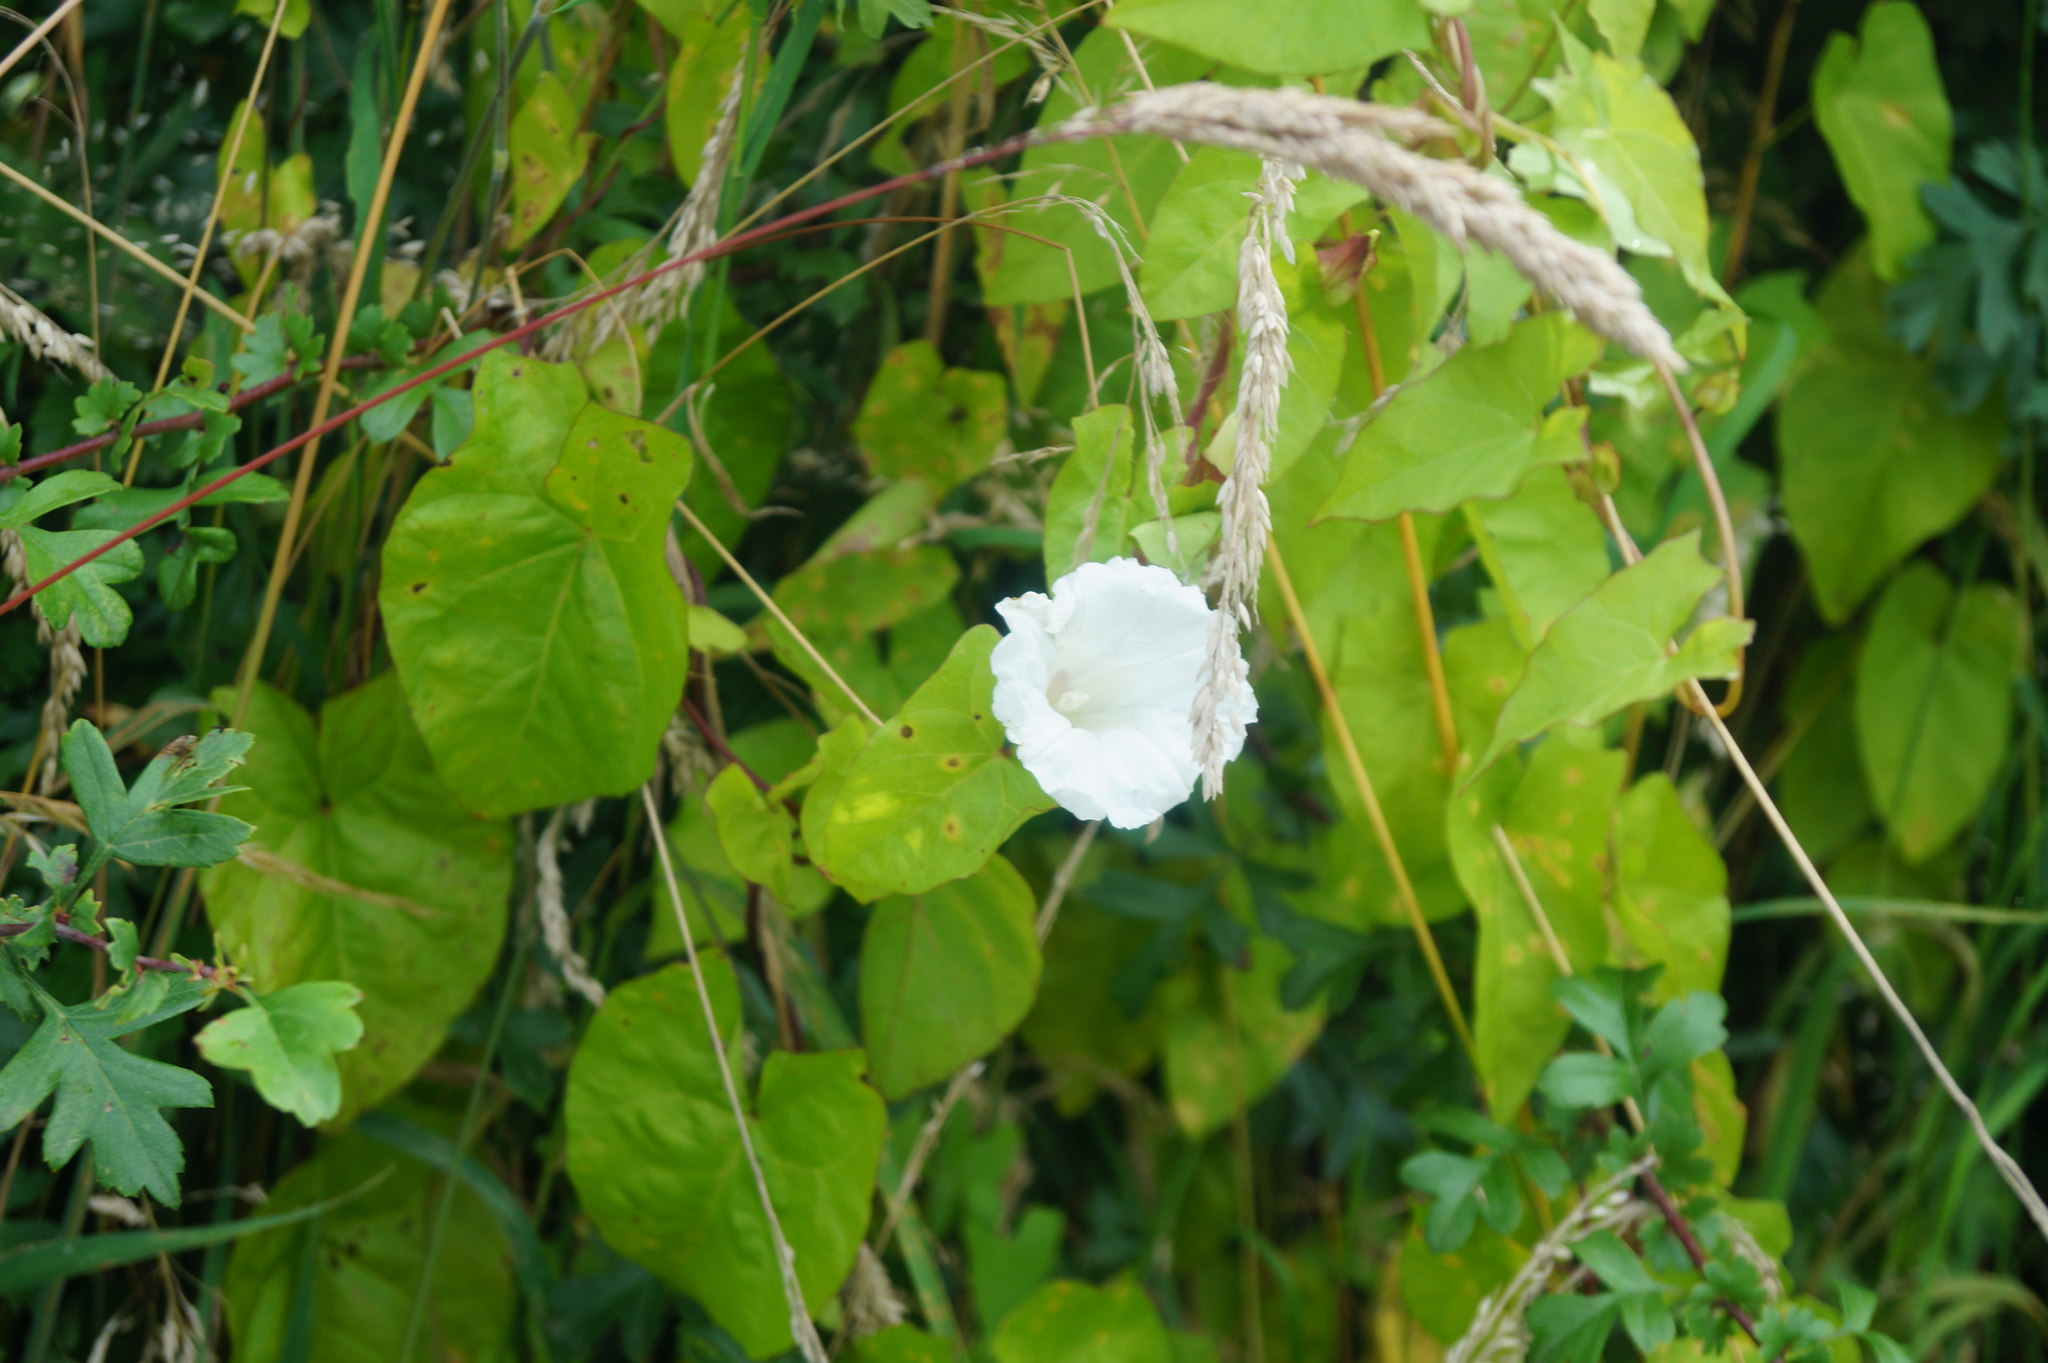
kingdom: Plantae
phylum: Tracheophyta
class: Magnoliopsida
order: Solanales
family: Convolvulaceae
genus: Calystegia
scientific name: Calystegia sepium
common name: Hedge bindweed
